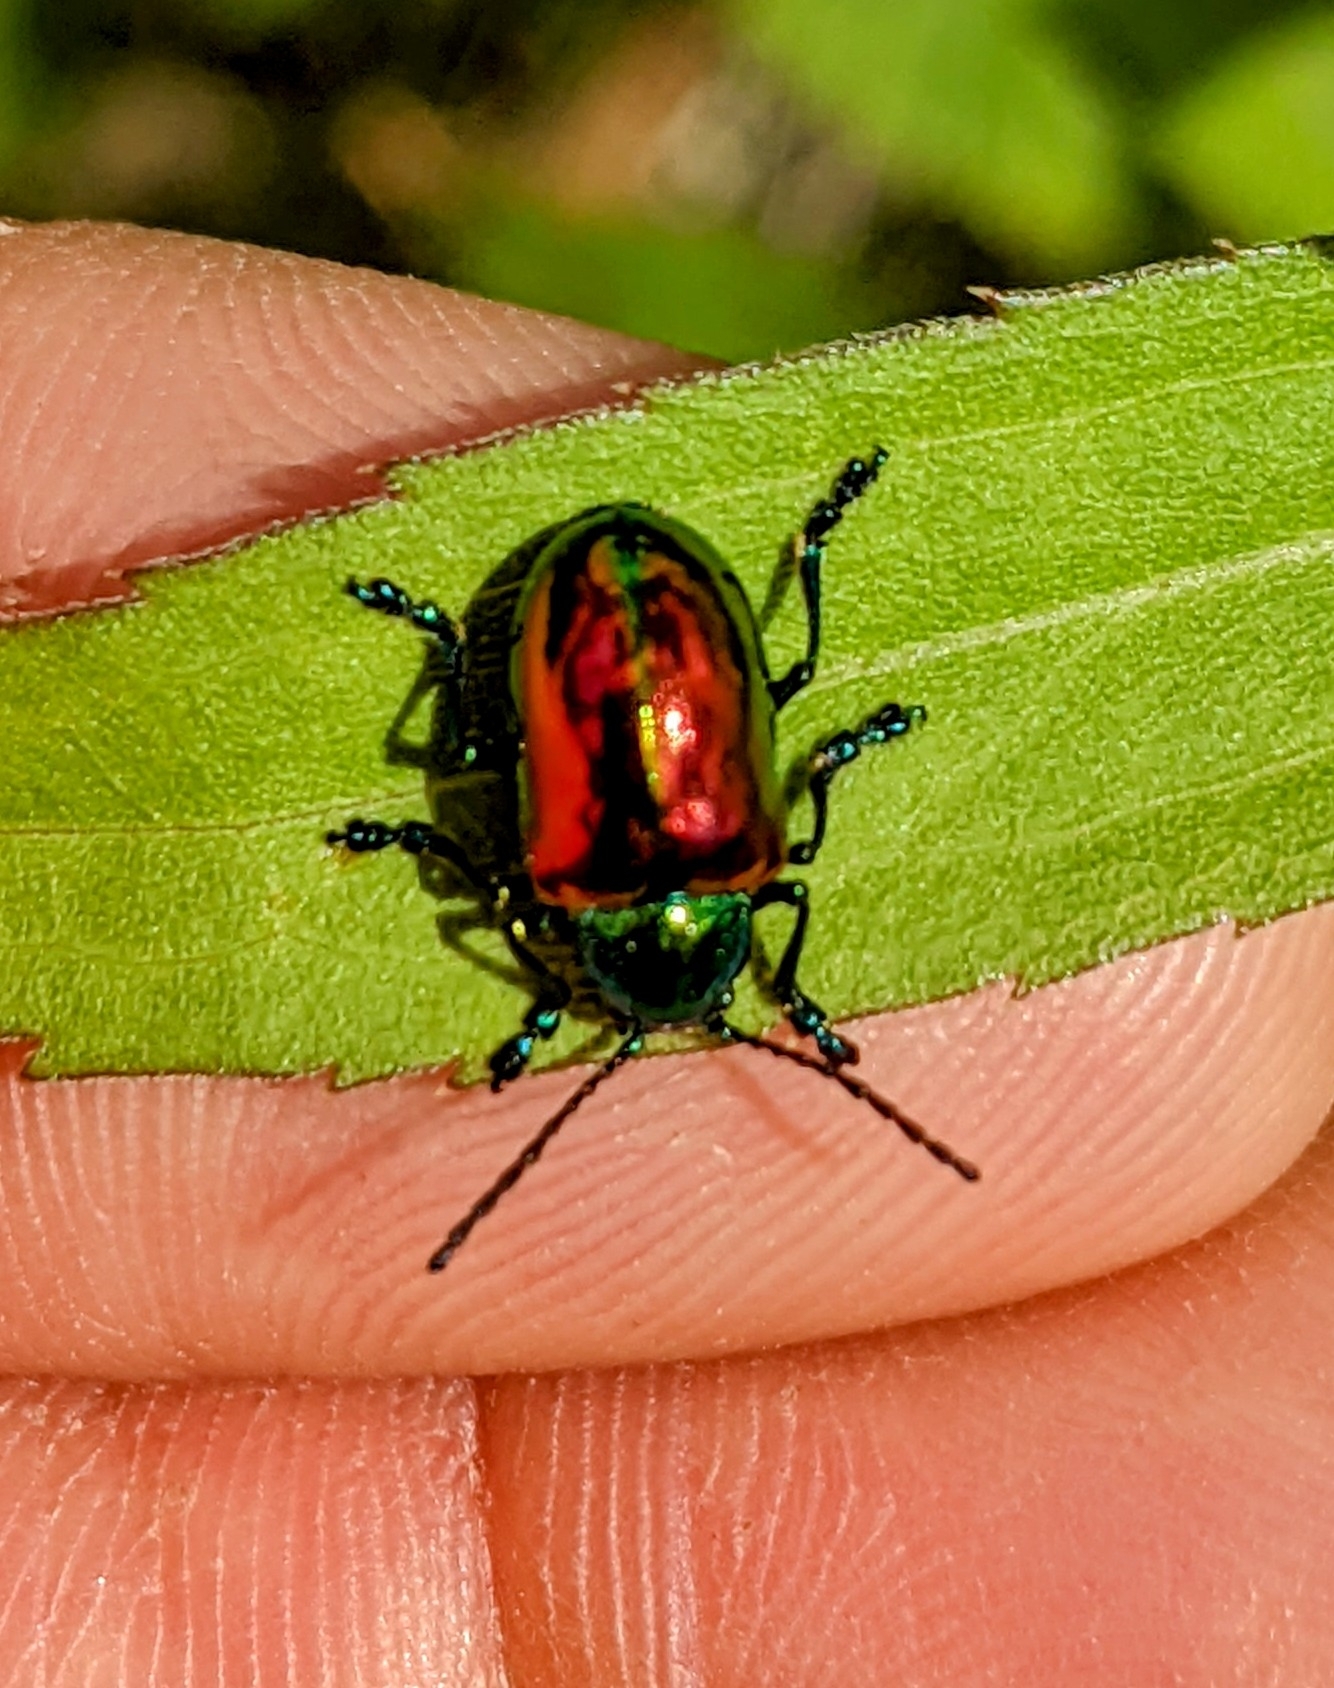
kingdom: Animalia
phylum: Arthropoda
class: Insecta
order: Coleoptera
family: Chrysomelidae
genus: Chrysochus
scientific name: Chrysochus auratus
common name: Dogbane leaf beetle
